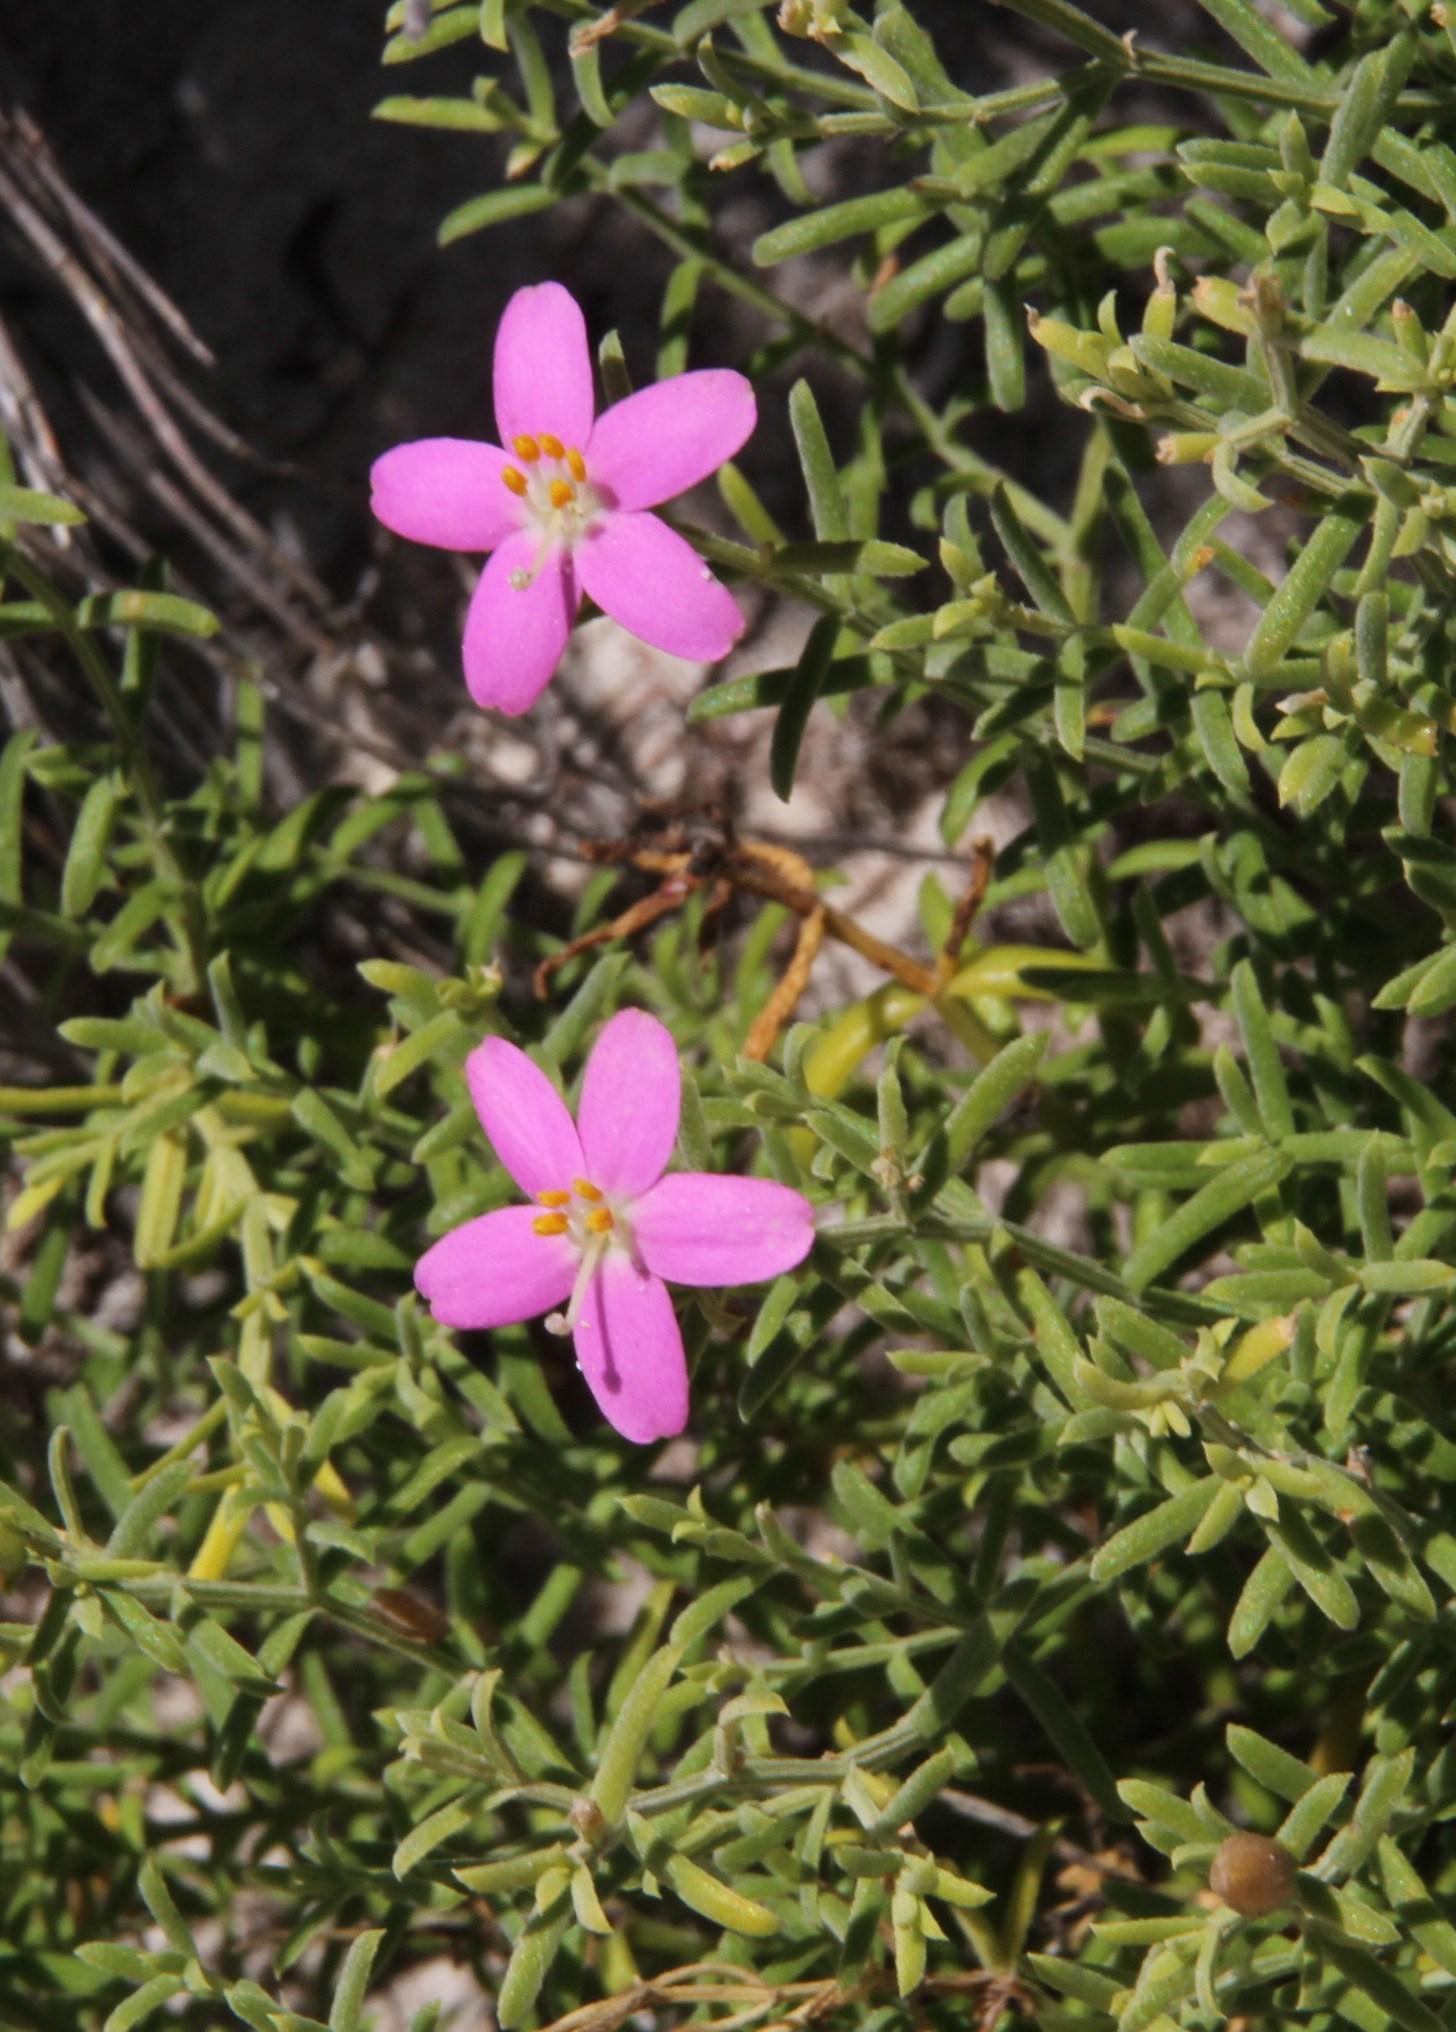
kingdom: Plantae
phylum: Tracheophyta
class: Magnoliopsida
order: Gentianales
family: Gentianaceae
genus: Chironia
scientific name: Chironia baccifera
